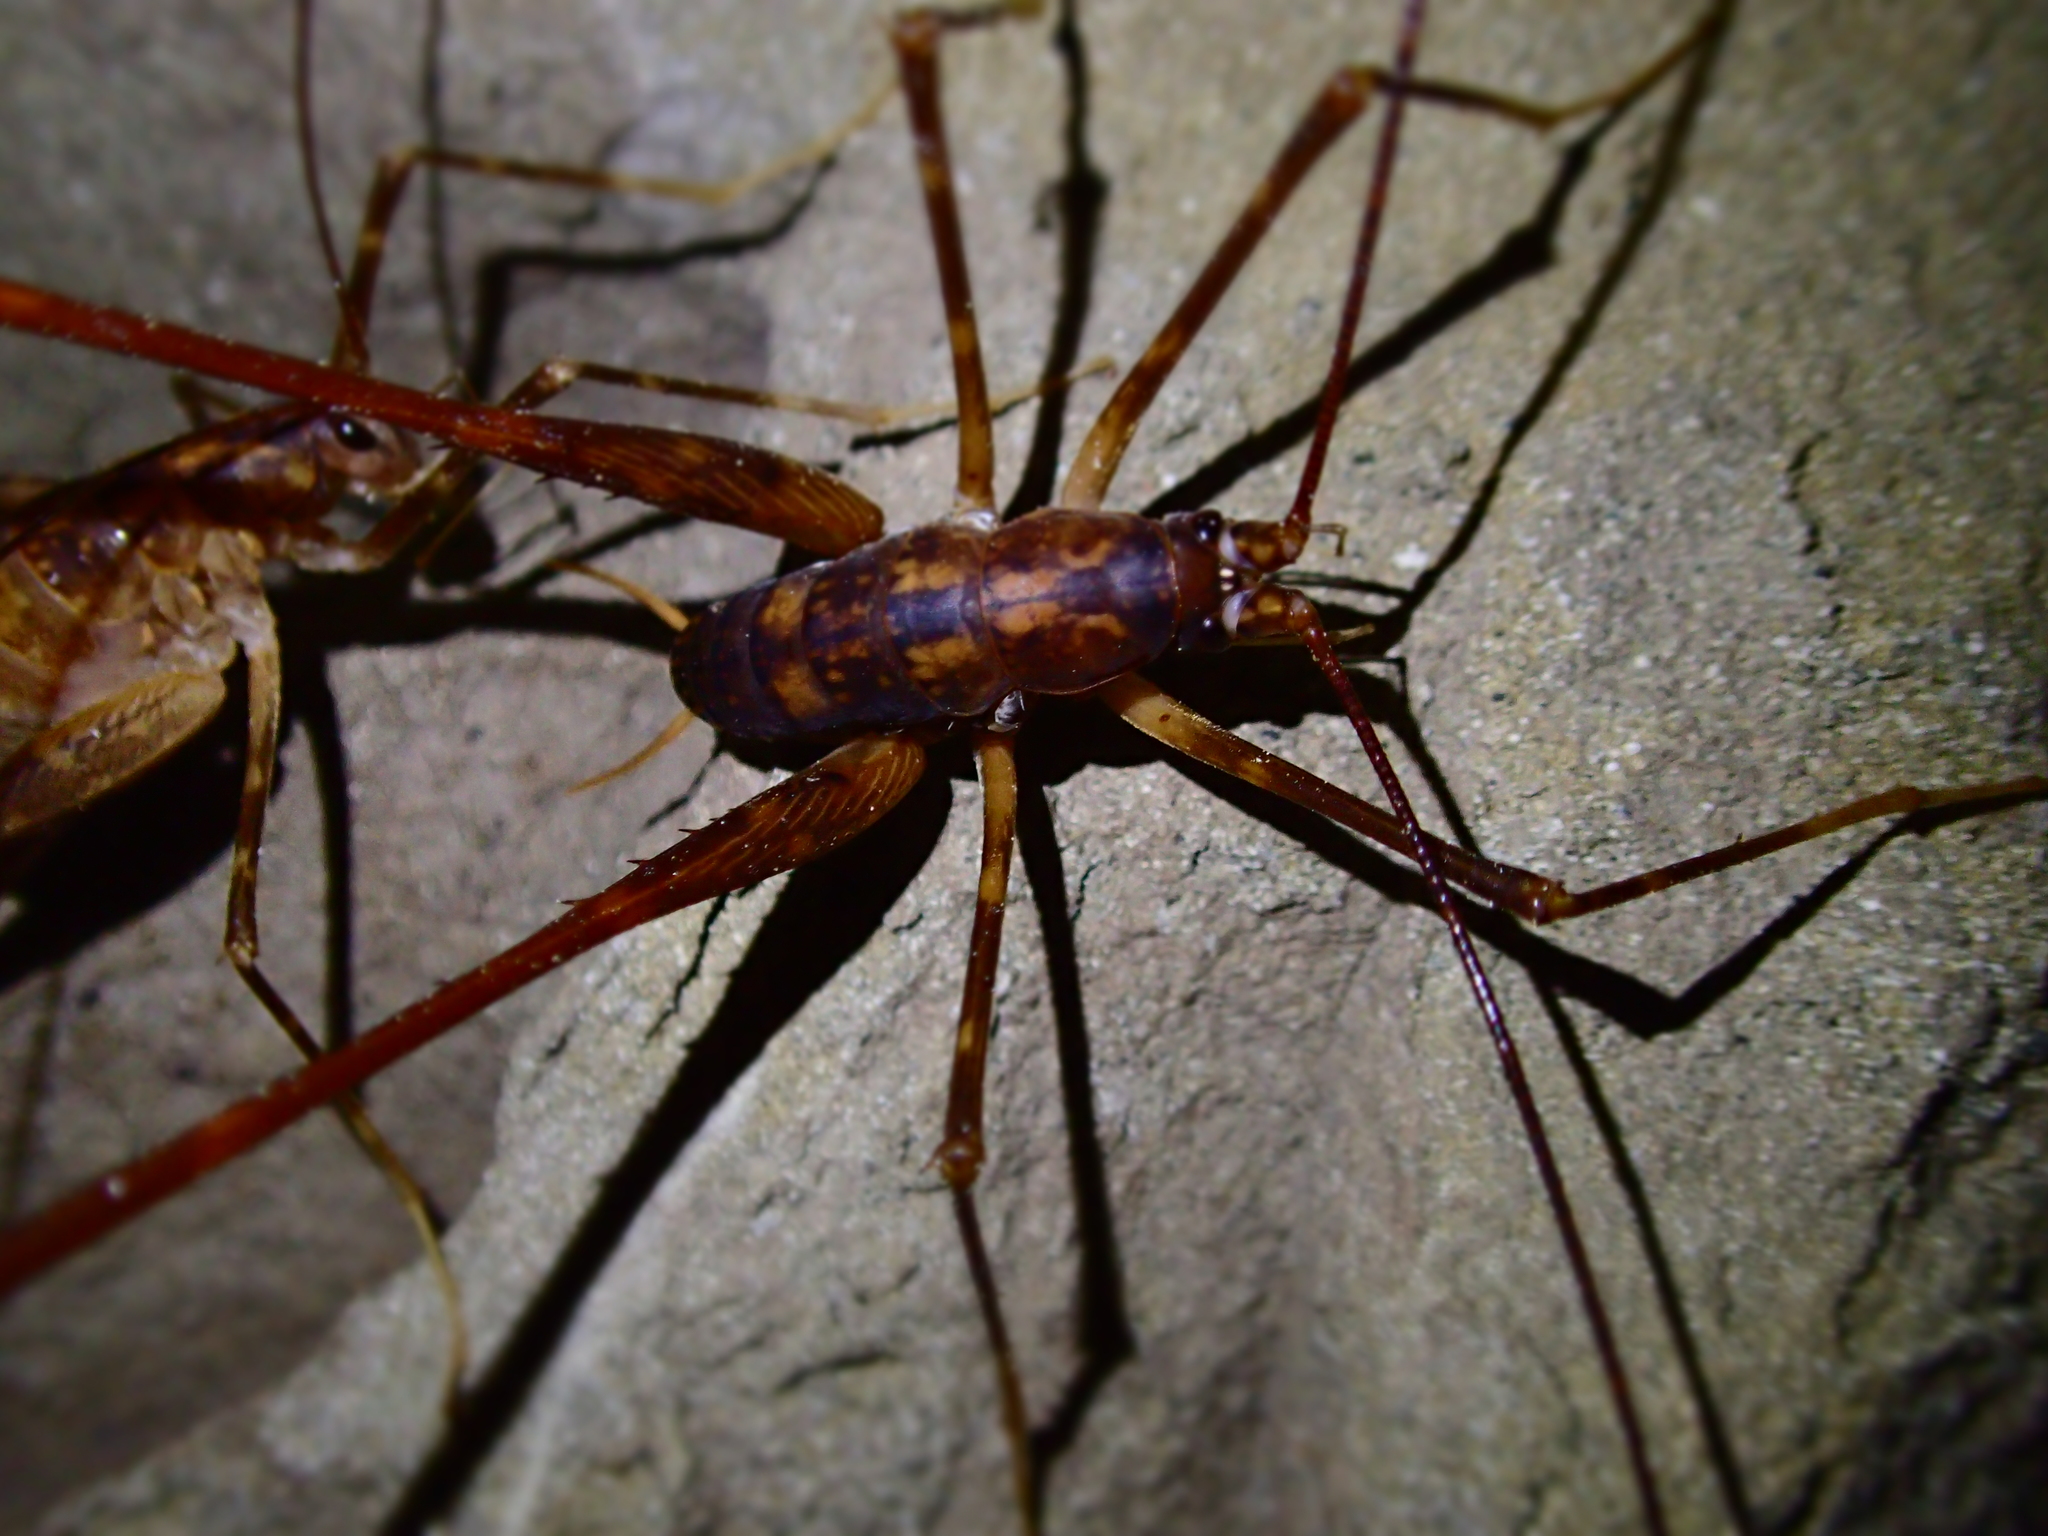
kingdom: Animalia
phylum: Arthropoda
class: Insecta
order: Orthoptera
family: Rhaphidophoridae
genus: Pachyrhamma
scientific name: Pachyrhamma cavernae
